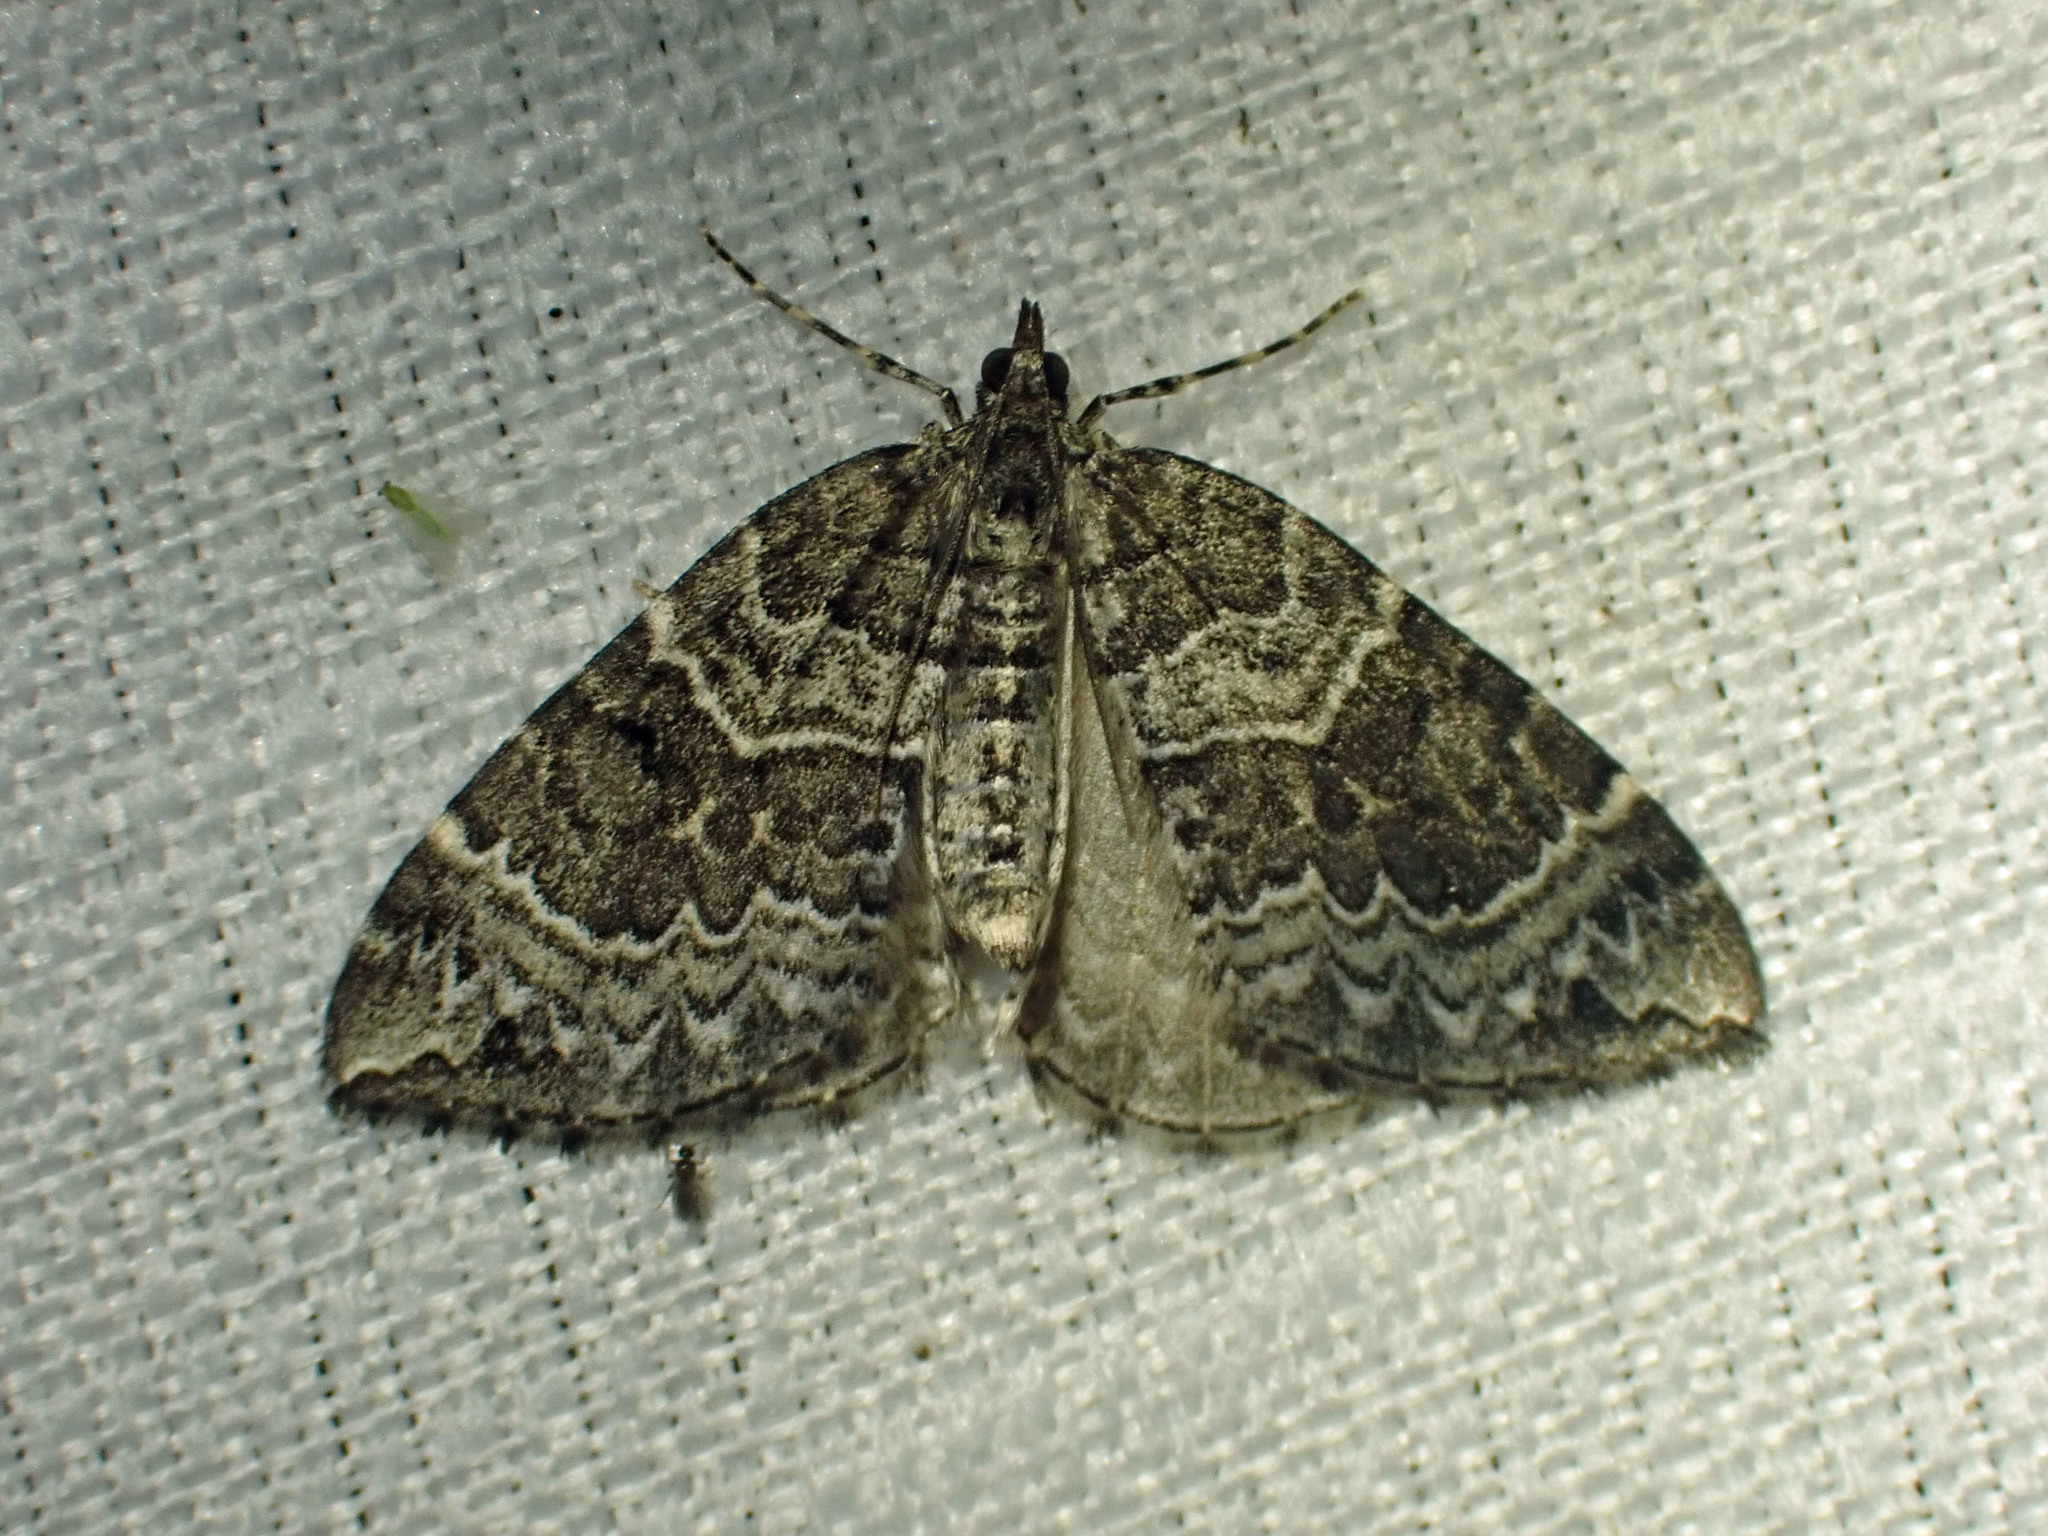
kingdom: Animalia
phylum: Arthropoda
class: Insecta
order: Lepidoptera
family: Geometridae
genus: Eulithis
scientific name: Eulithis explanata
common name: White eulithis
